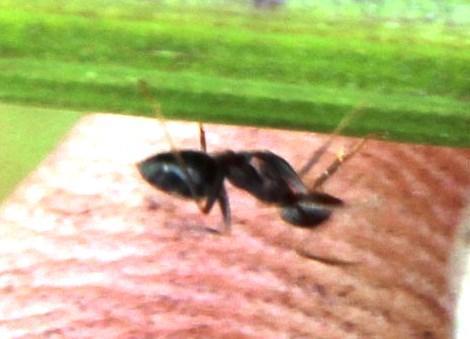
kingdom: Animalia
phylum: Arthropoda
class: Insecta
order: Hymenoptera
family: Formicidae
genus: Lepisiota
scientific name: Lepisiota capensis
